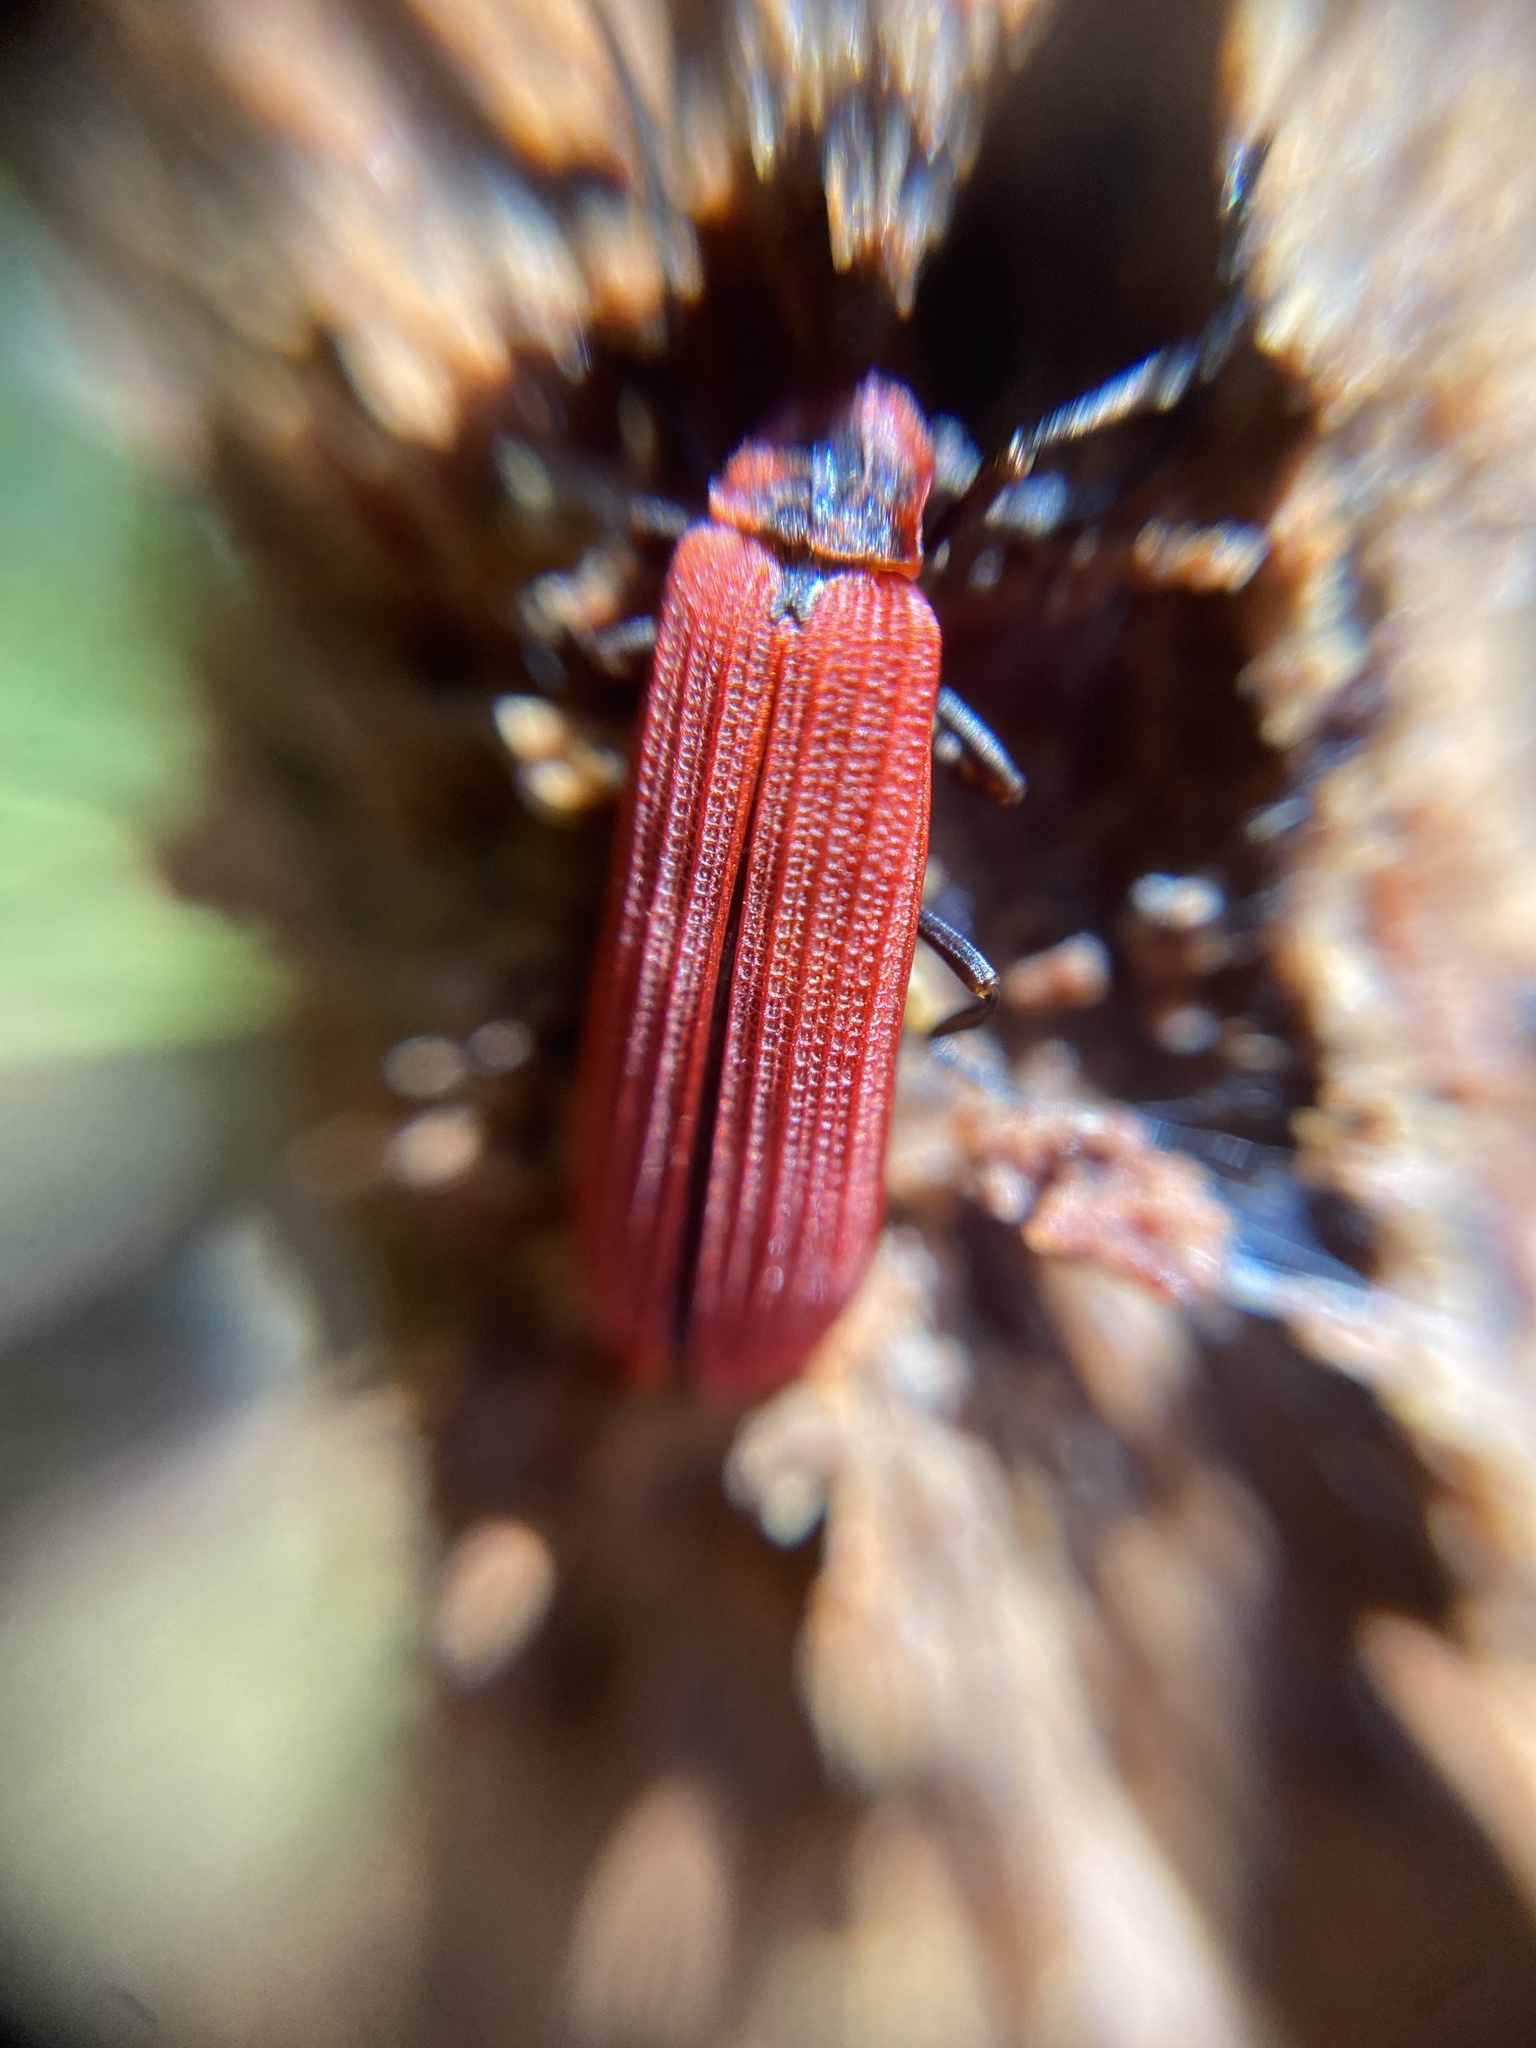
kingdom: Animalia
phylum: Arthropoda
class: Insecta
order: Coleoptera
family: Lycidae
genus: Dictyoptera
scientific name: Dictyoptera aurora
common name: Golden net-winged beetle
